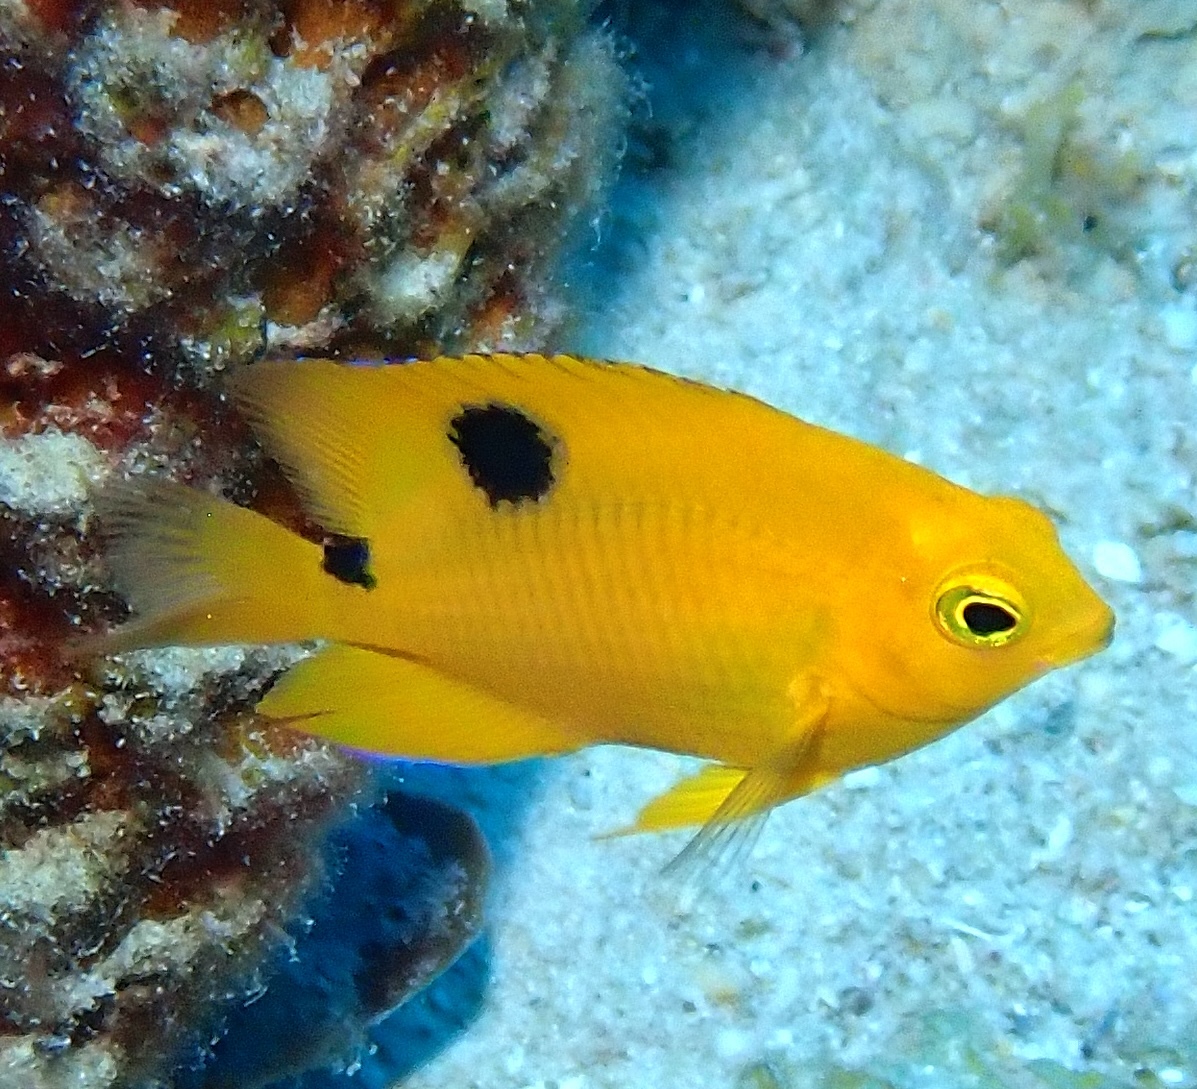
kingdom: Animalia
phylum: Chordata
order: Perciformes
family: Pomacentridae
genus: Stegastes
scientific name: Stegastes planifrons
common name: Threespot damselfish
